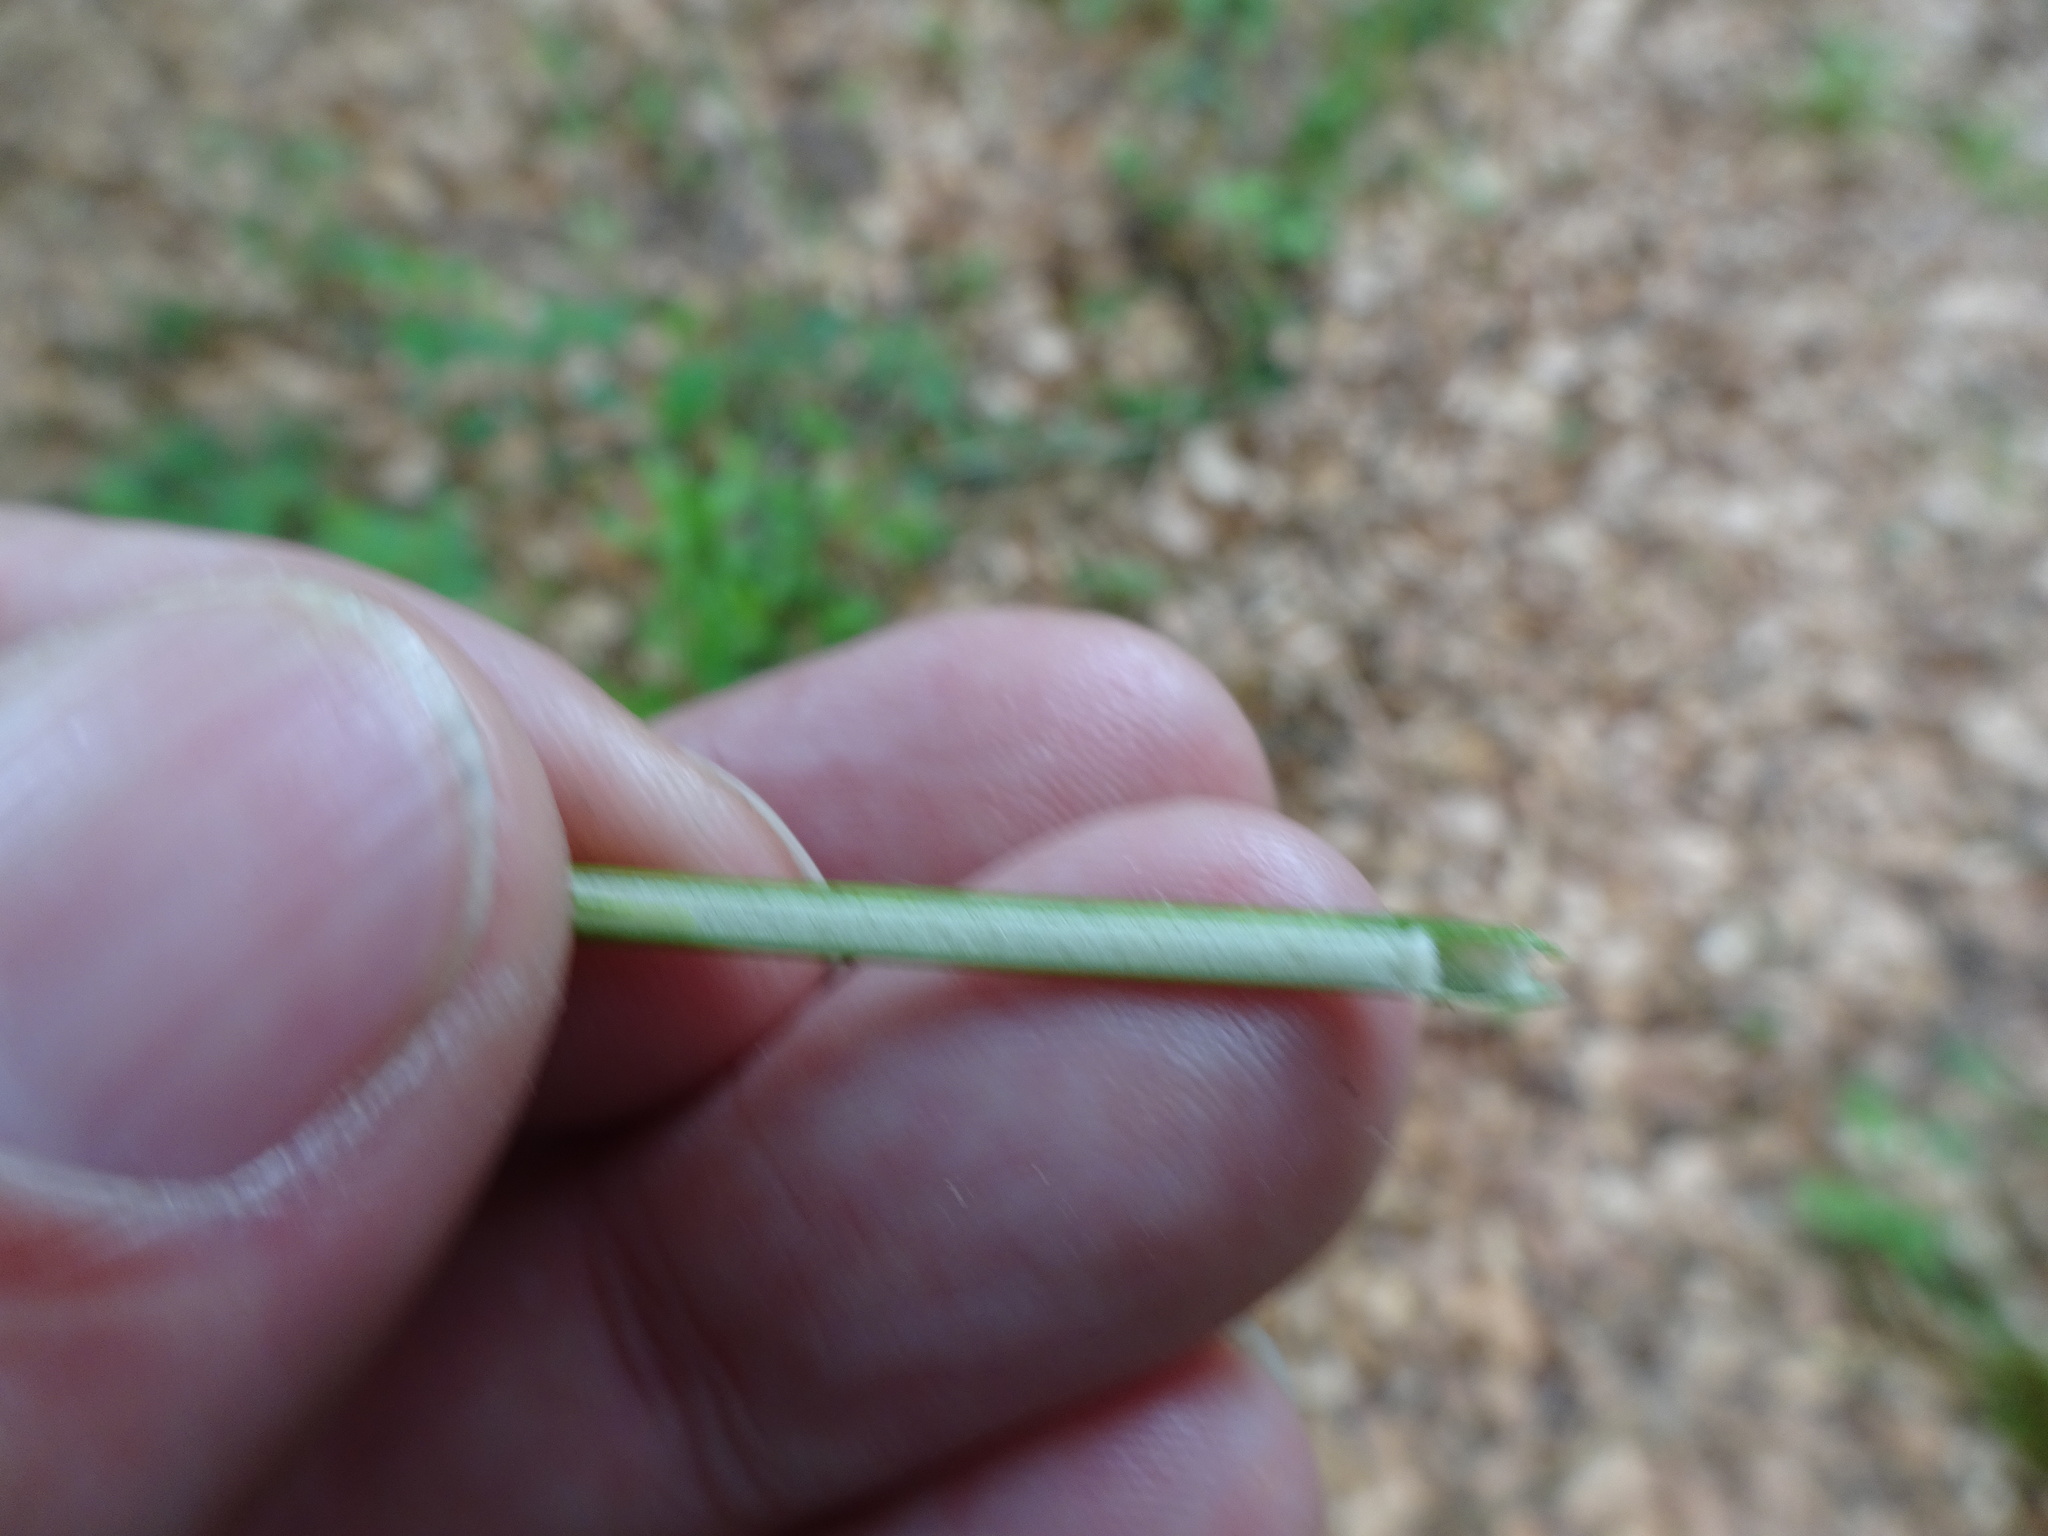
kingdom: Plantae
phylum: Tracheophyta
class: Liliopsida
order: Poales
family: Juncaceae
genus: Juncus
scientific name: Juncus effusus
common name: Soft rush
